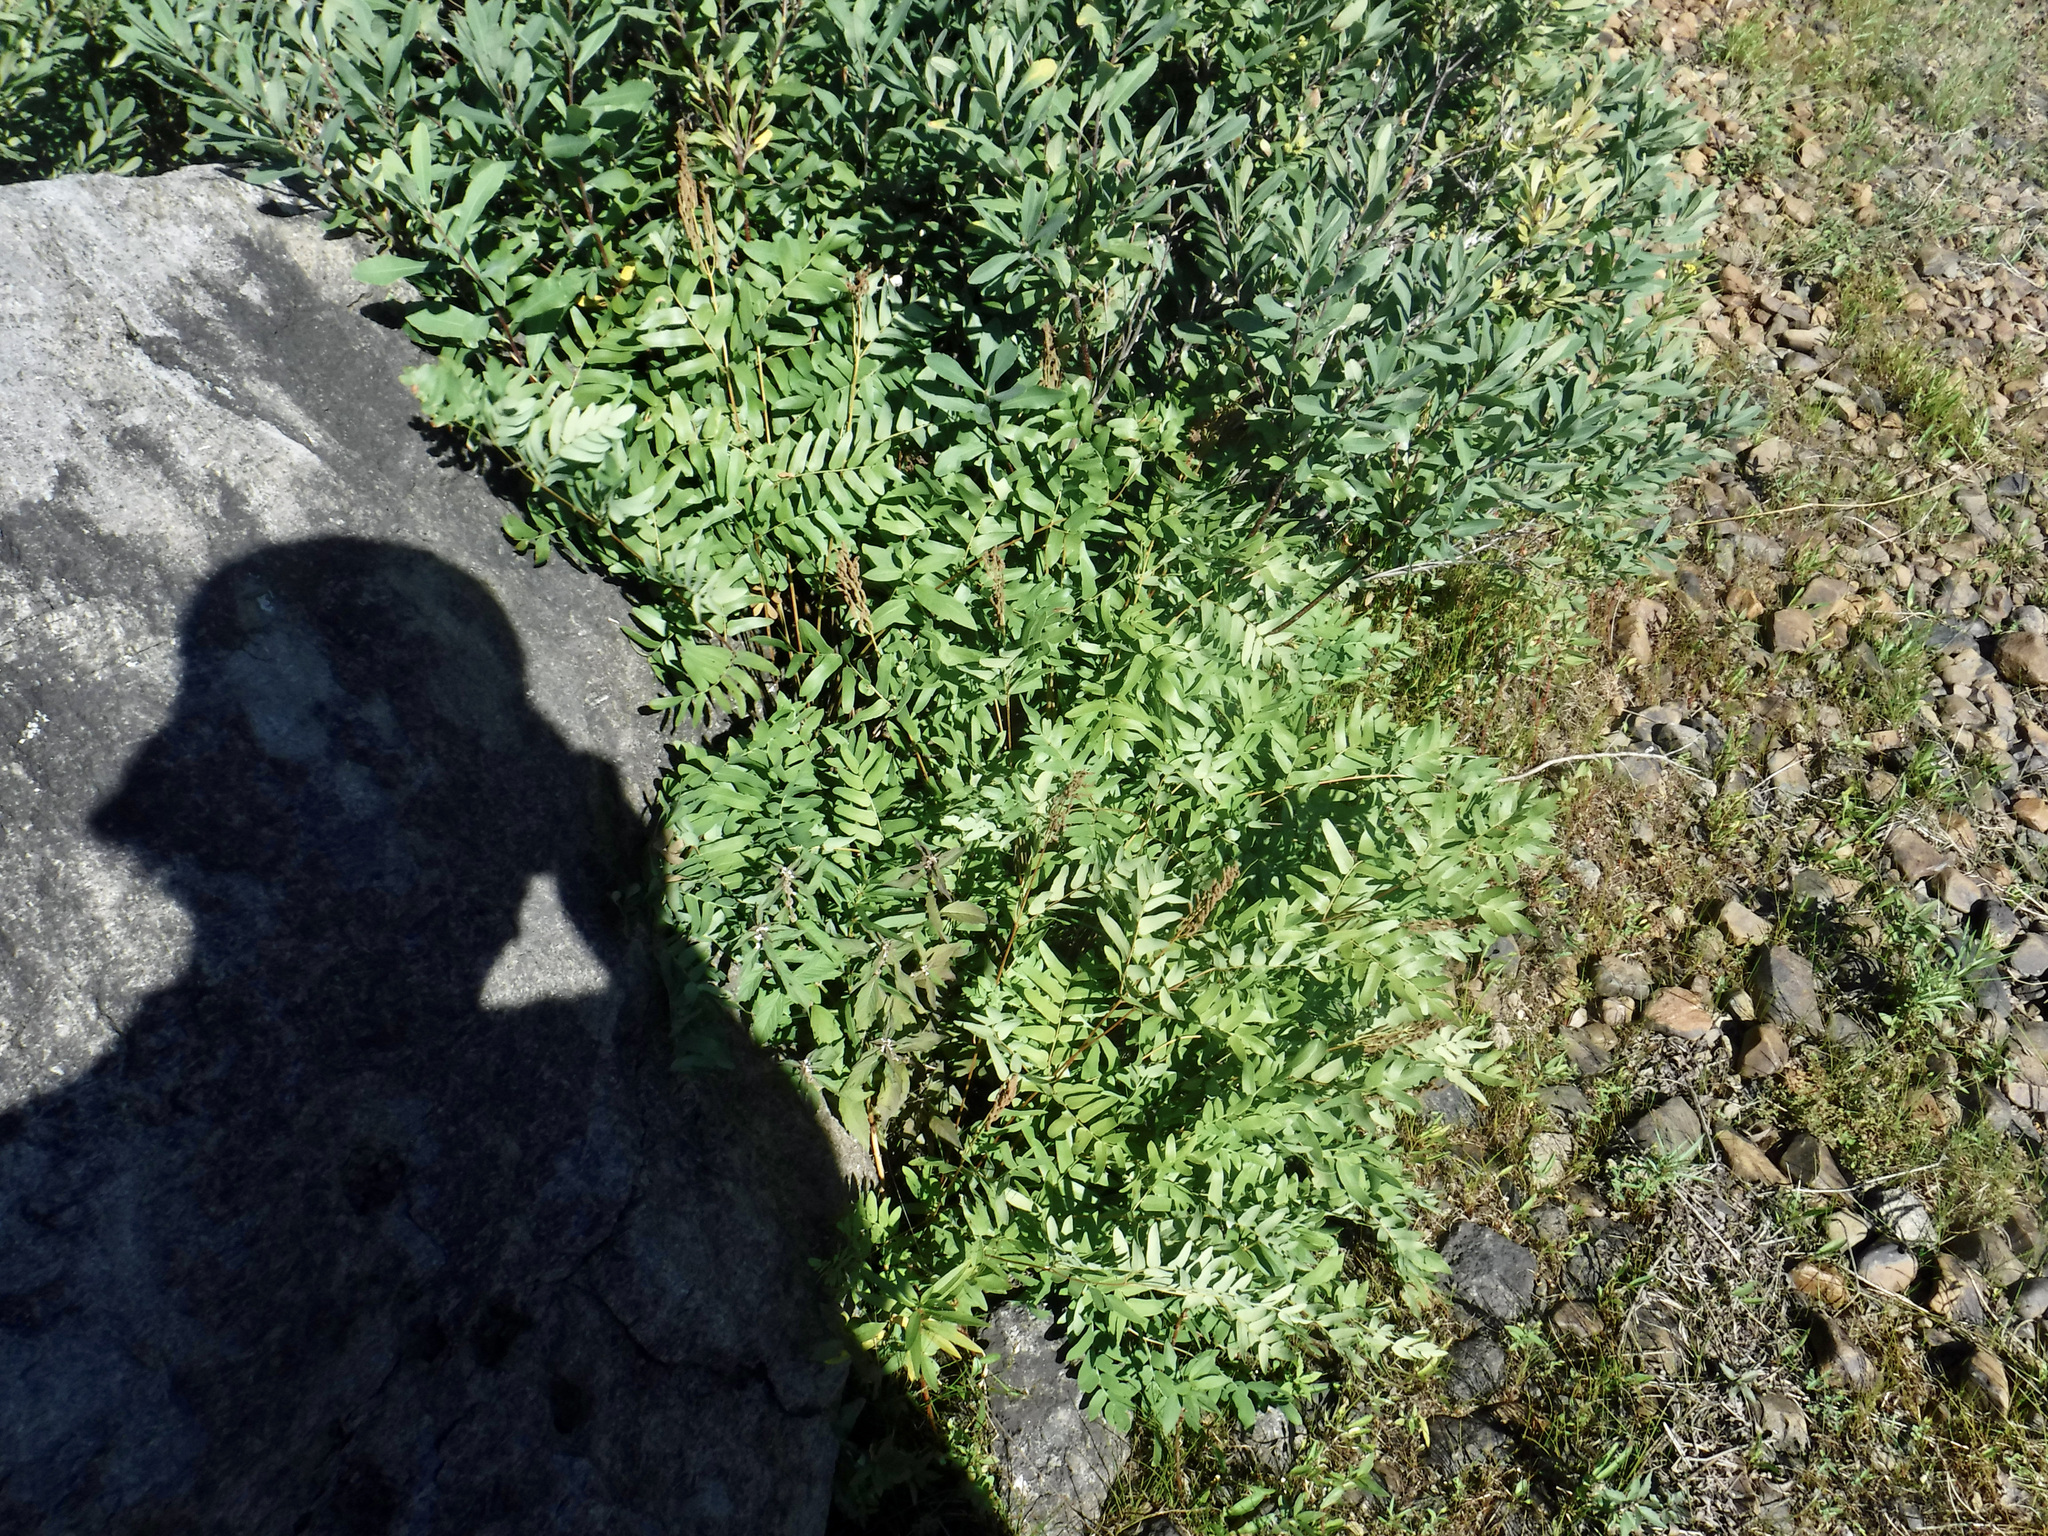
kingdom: Plantae
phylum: Tracheophyta
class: Polypodiopsida
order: Osmundales
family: Osmundaceae
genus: Osmunda
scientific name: Osmunda spectabilis
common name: American royal fern
